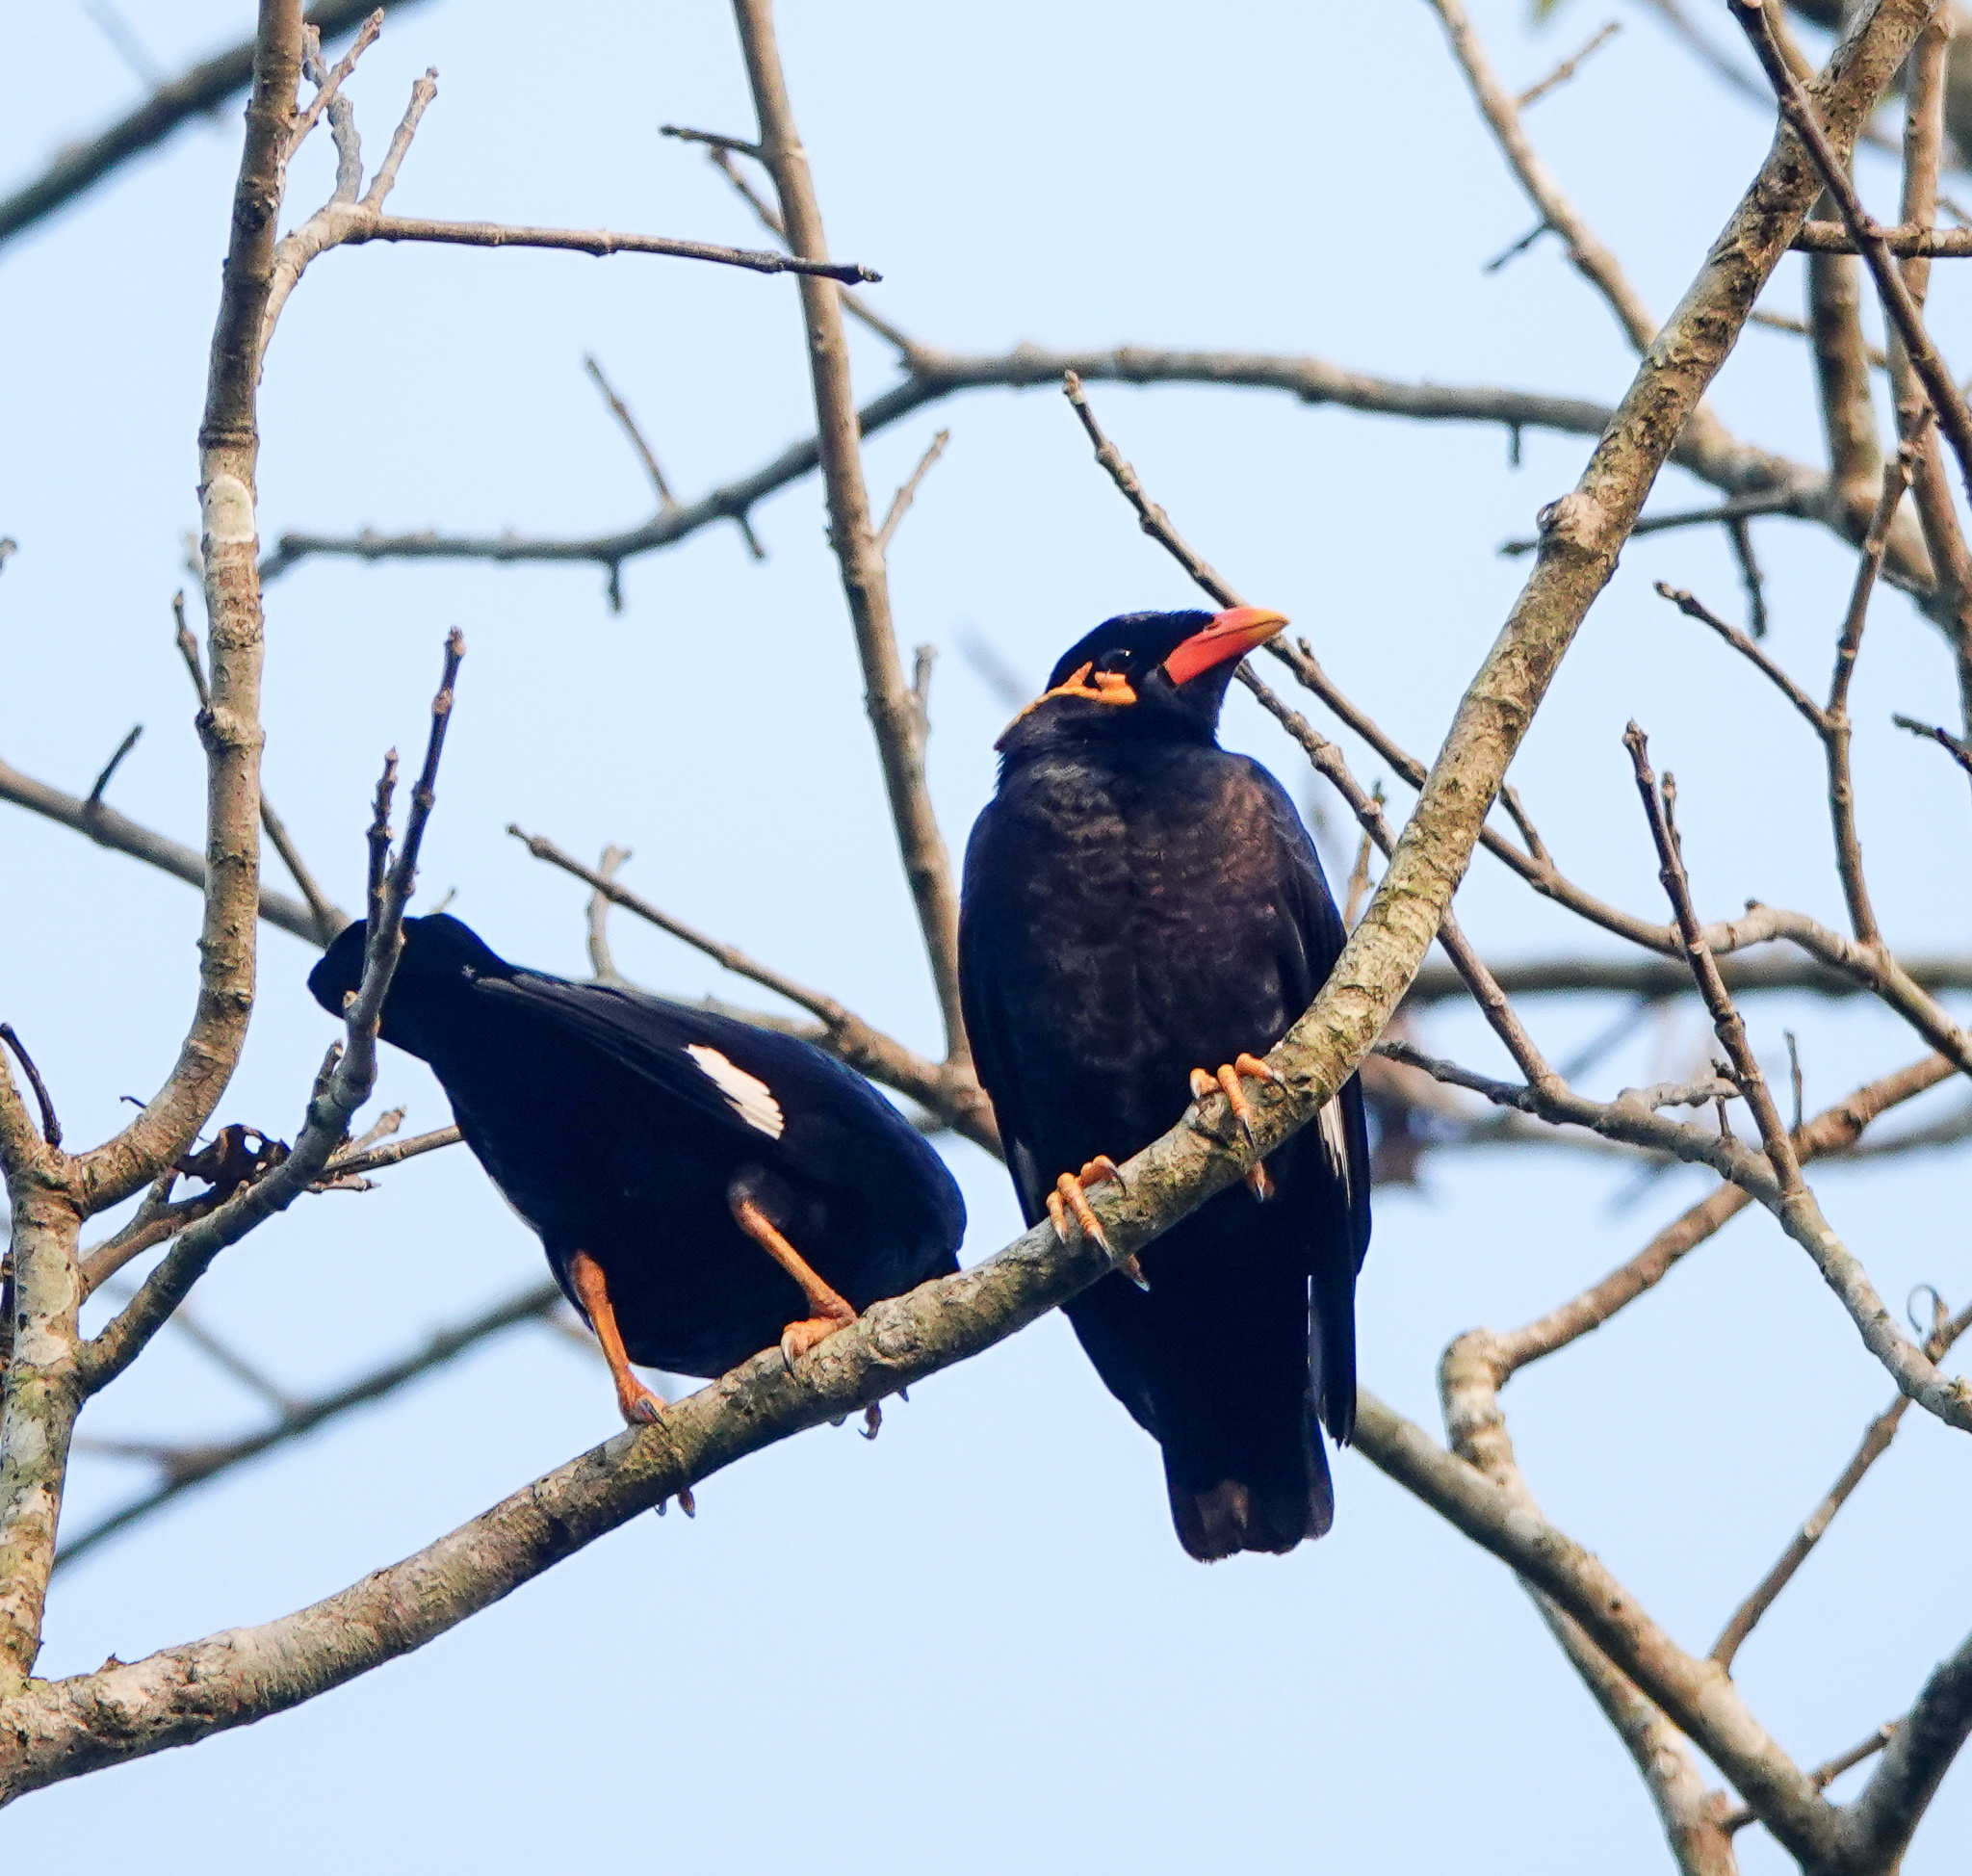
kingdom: Animalia
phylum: Chordata
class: Aves
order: Passeriformes
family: Sturnidae
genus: Gracula
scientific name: Gracula religiosa
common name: Common hill myna
